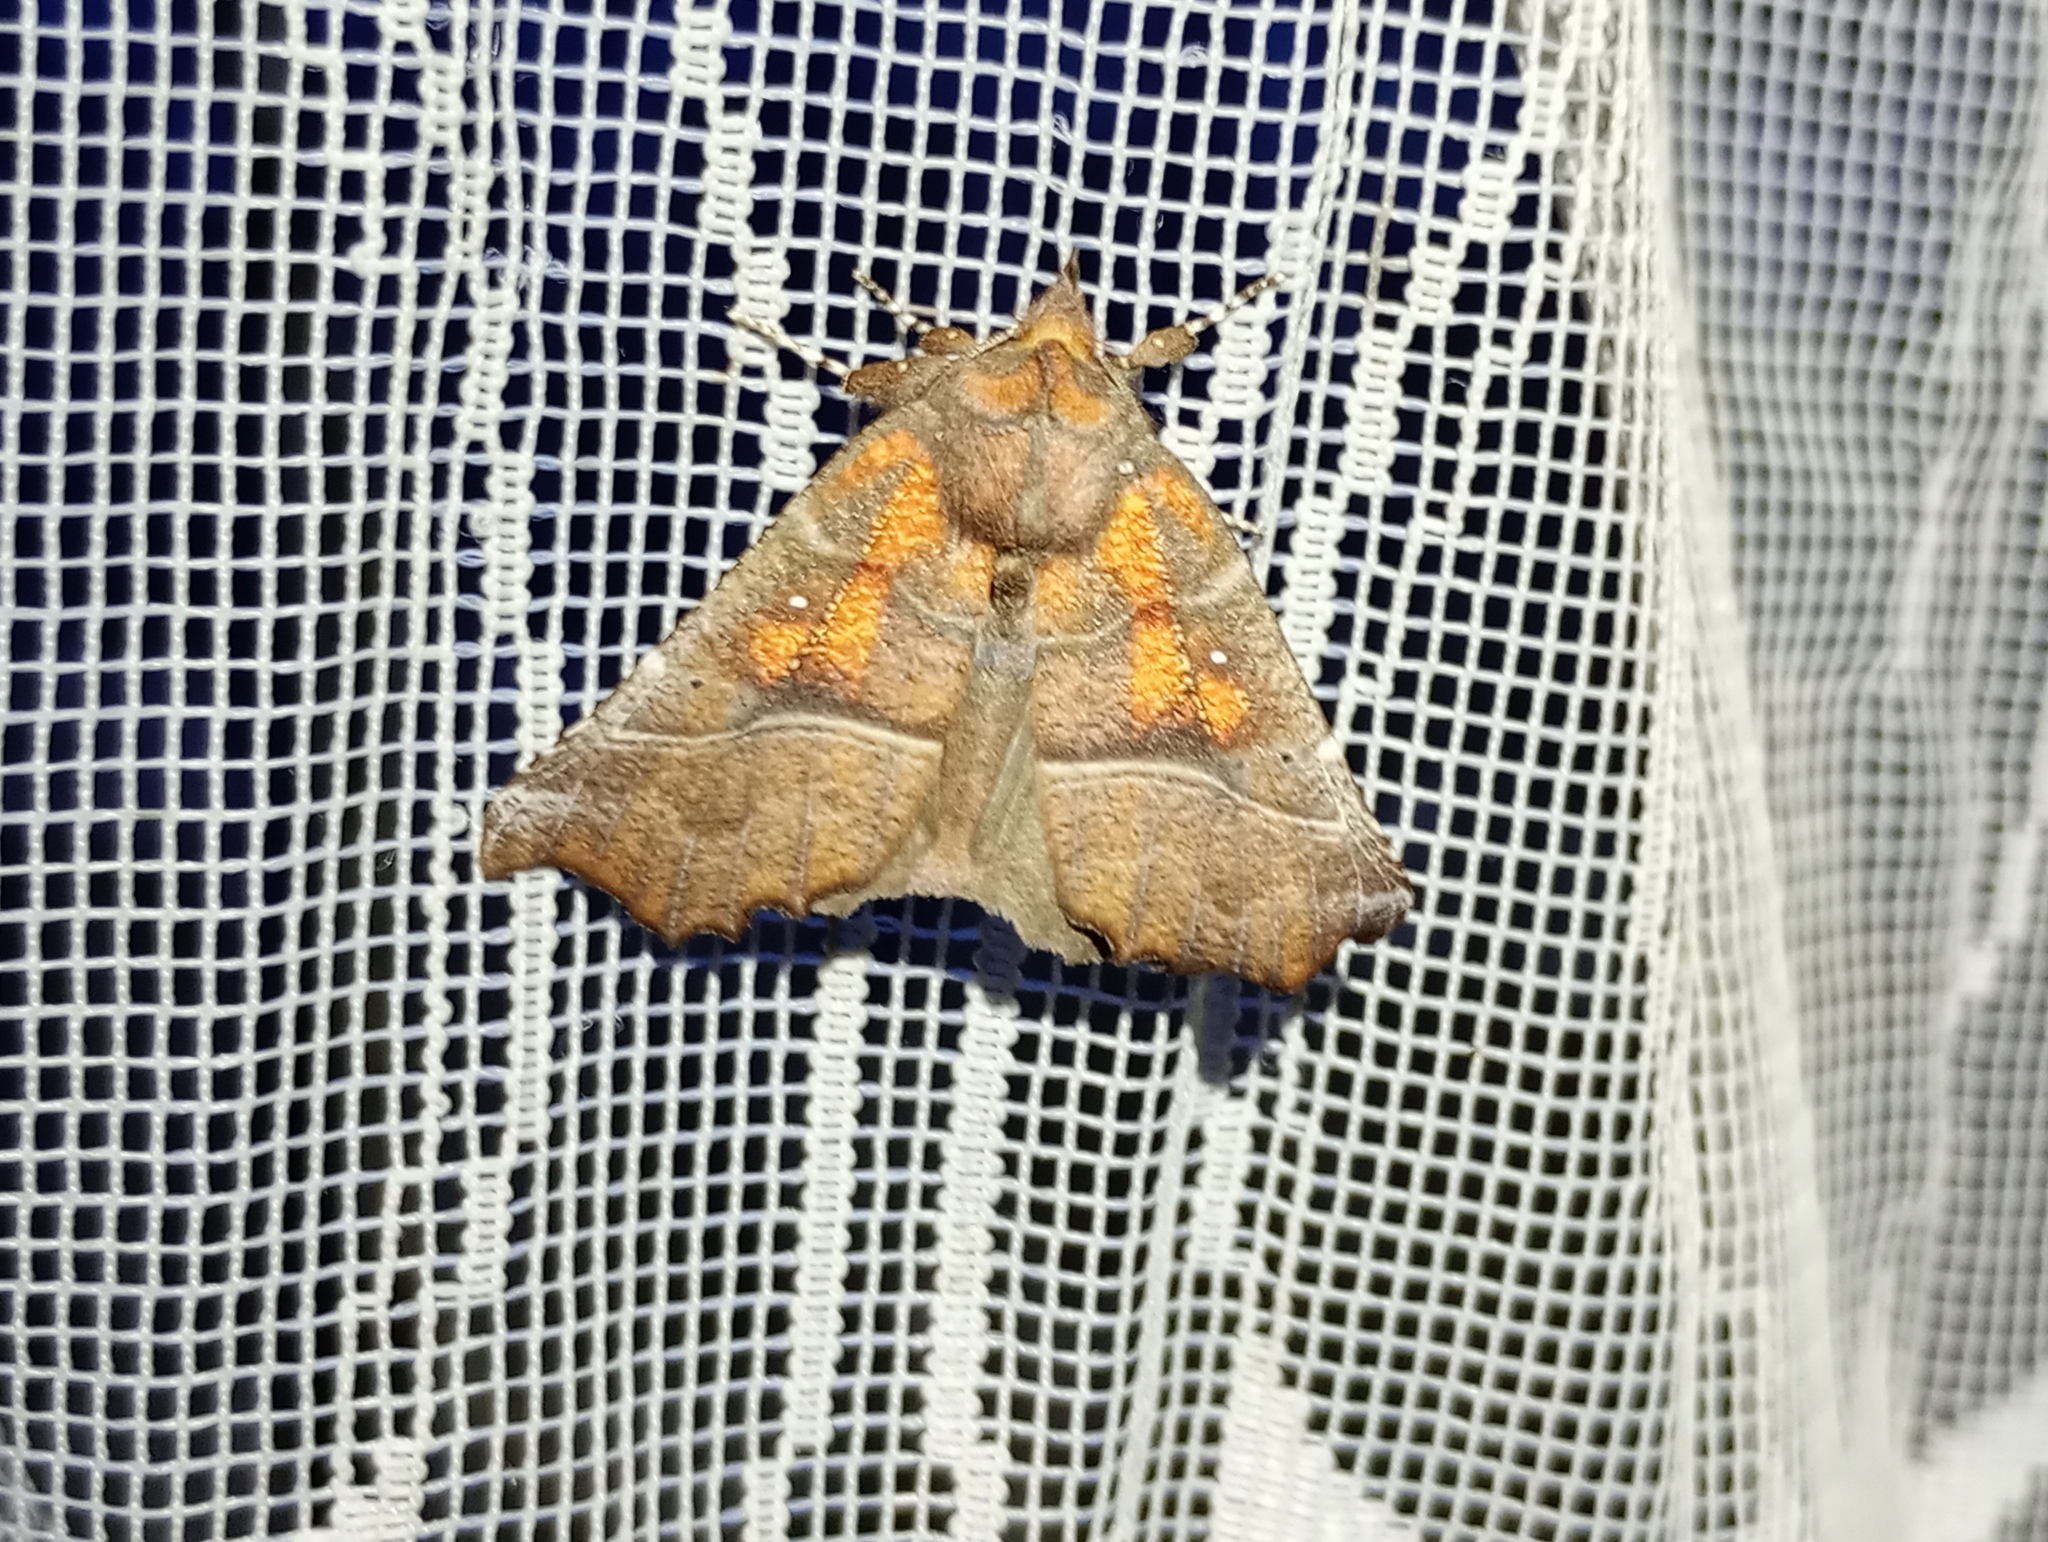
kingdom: Animalia
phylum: Arthropoda
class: Insecta
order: Lepidoptera
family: Erebidae
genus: Scoliopteryx
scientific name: Scoliopteryx libatrix
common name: Herald
